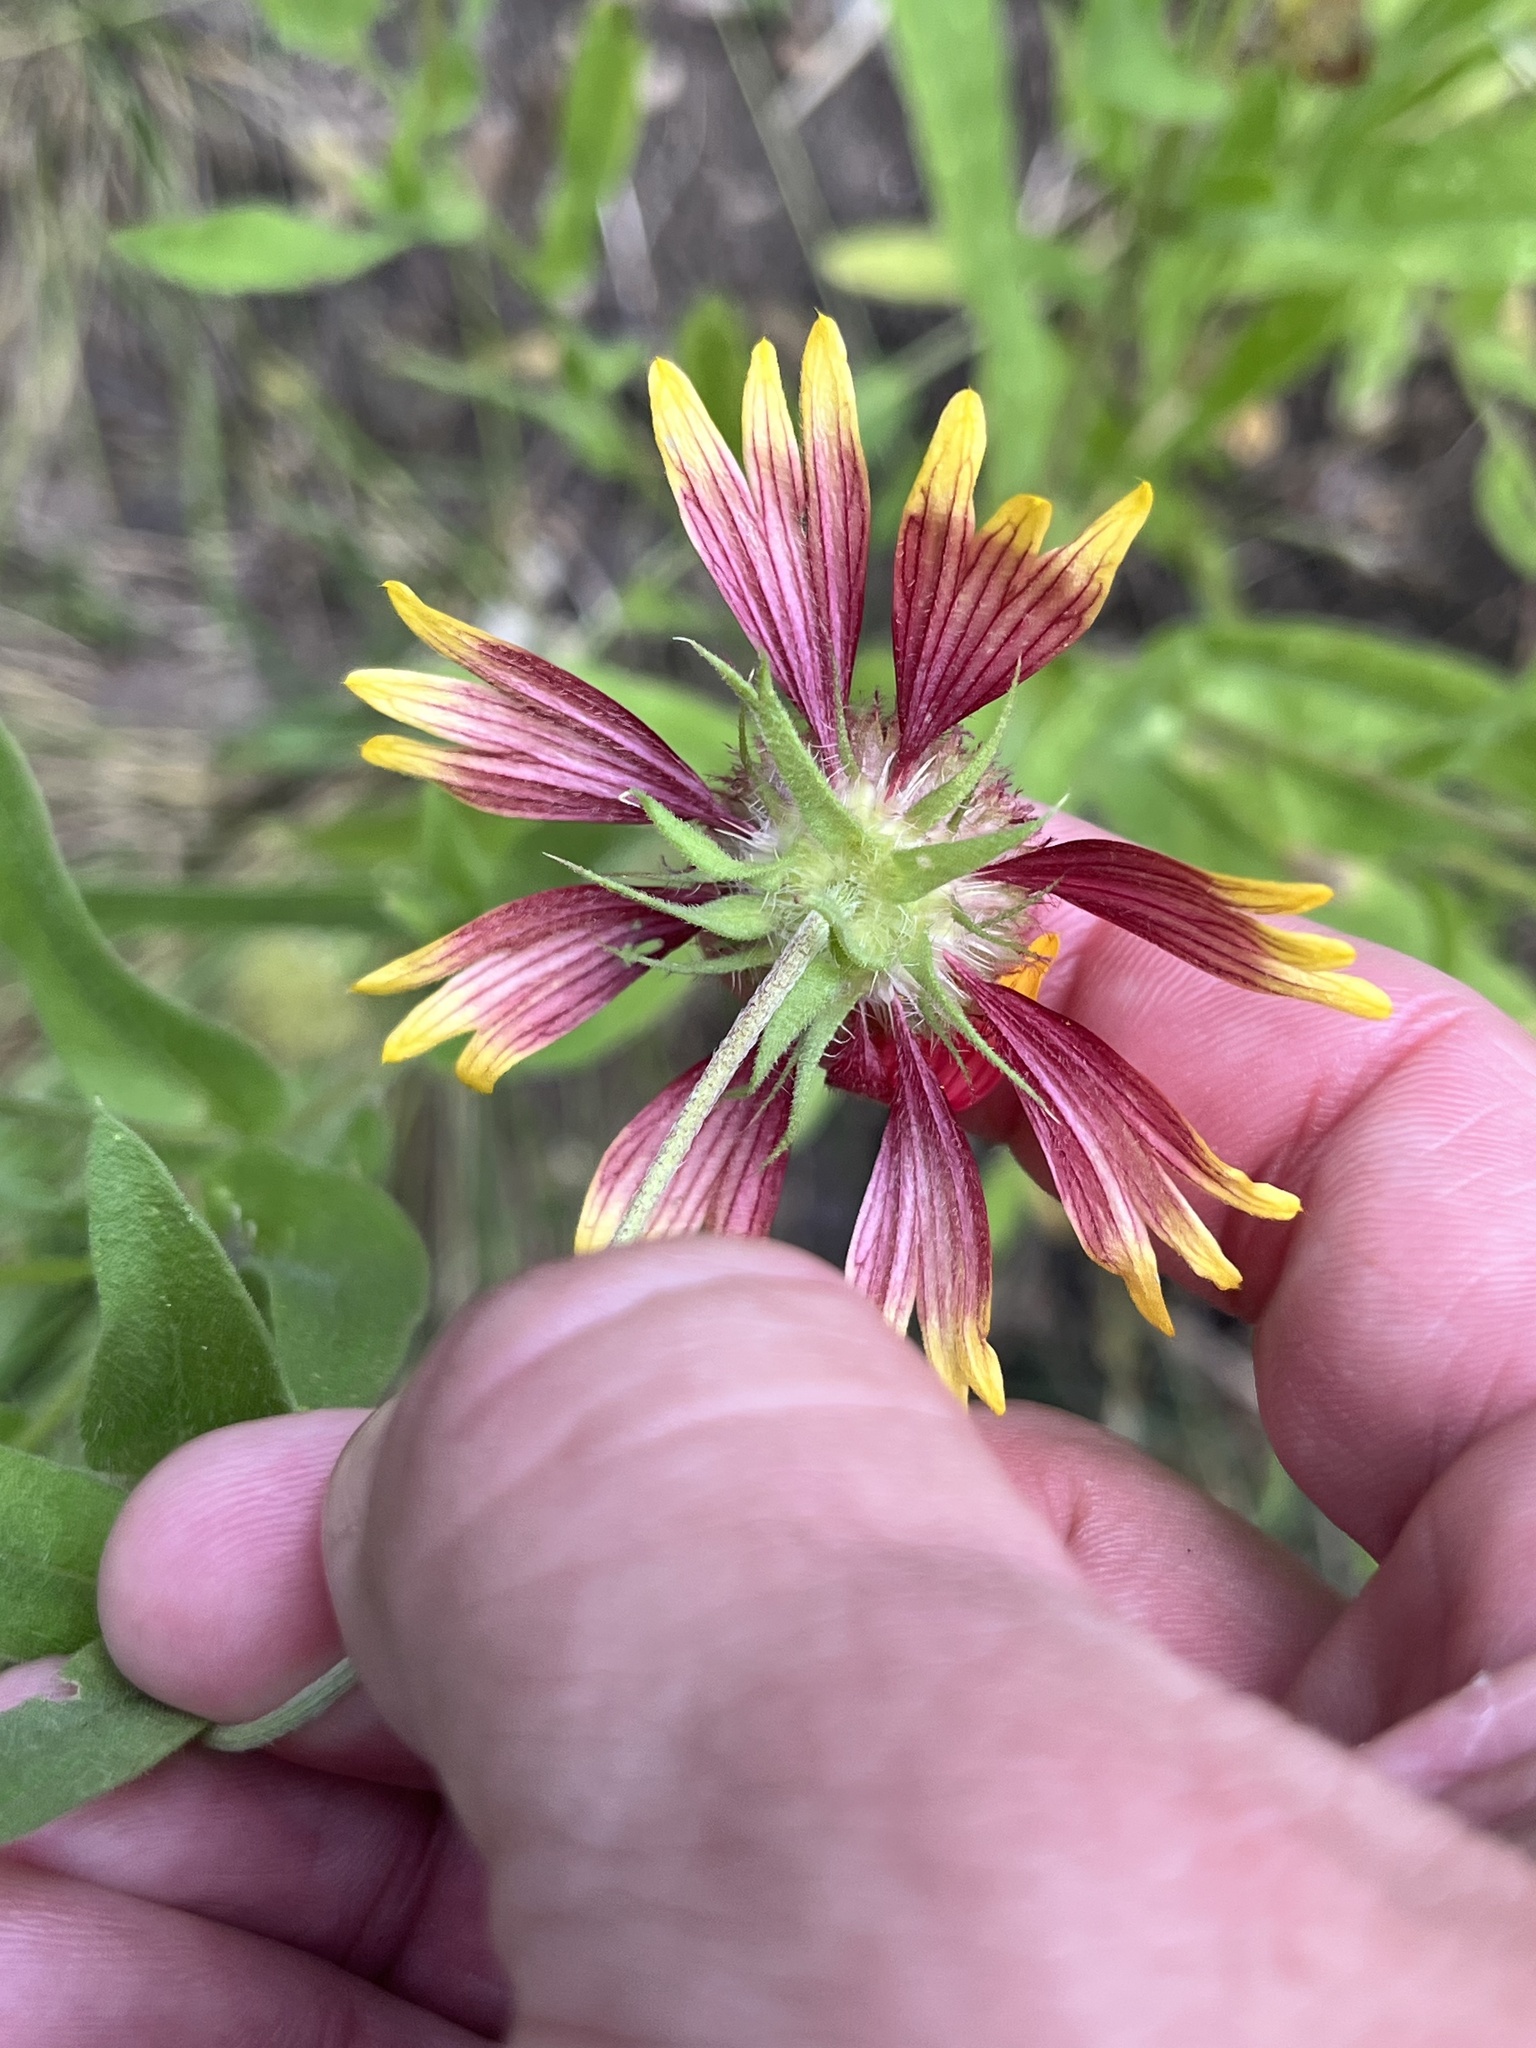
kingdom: Plantae
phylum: Tracheophyta
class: Magnoliopsida
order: Asterales
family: Asteraceae
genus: Gaillardia
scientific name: Gaillardia pulchella
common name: Firewheel
